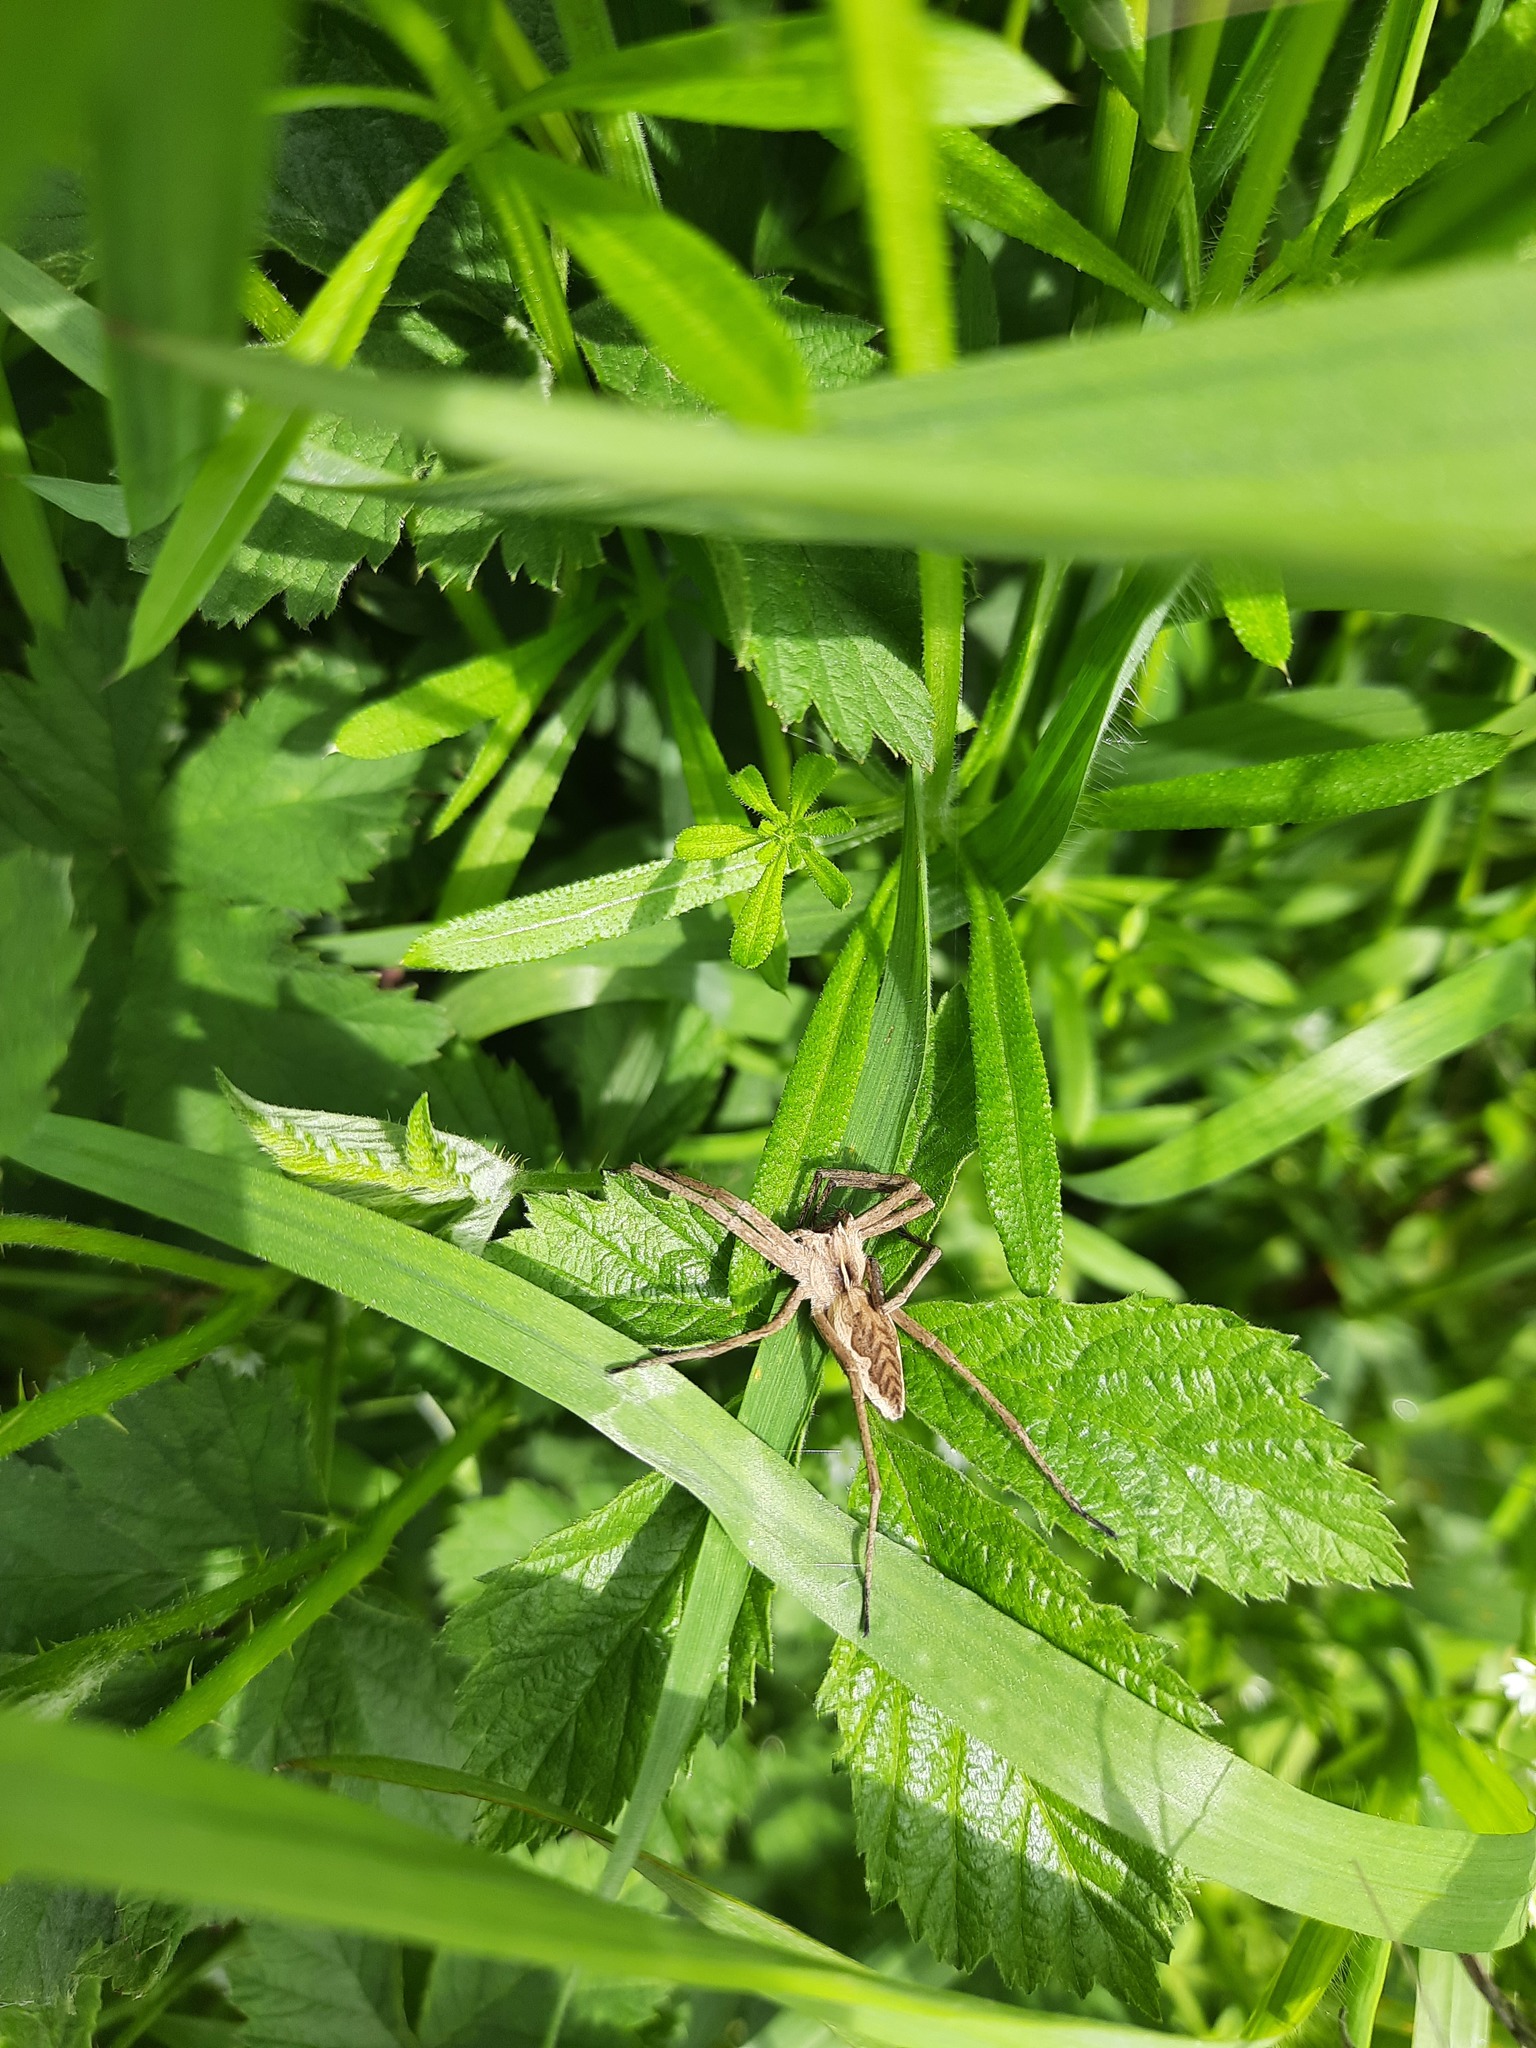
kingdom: Animalia
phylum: Arthropoda
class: Arachnida
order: Araneae
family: Pisauridae
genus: Pisaura
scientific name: Pisaura mirabilis
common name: Tent spider
